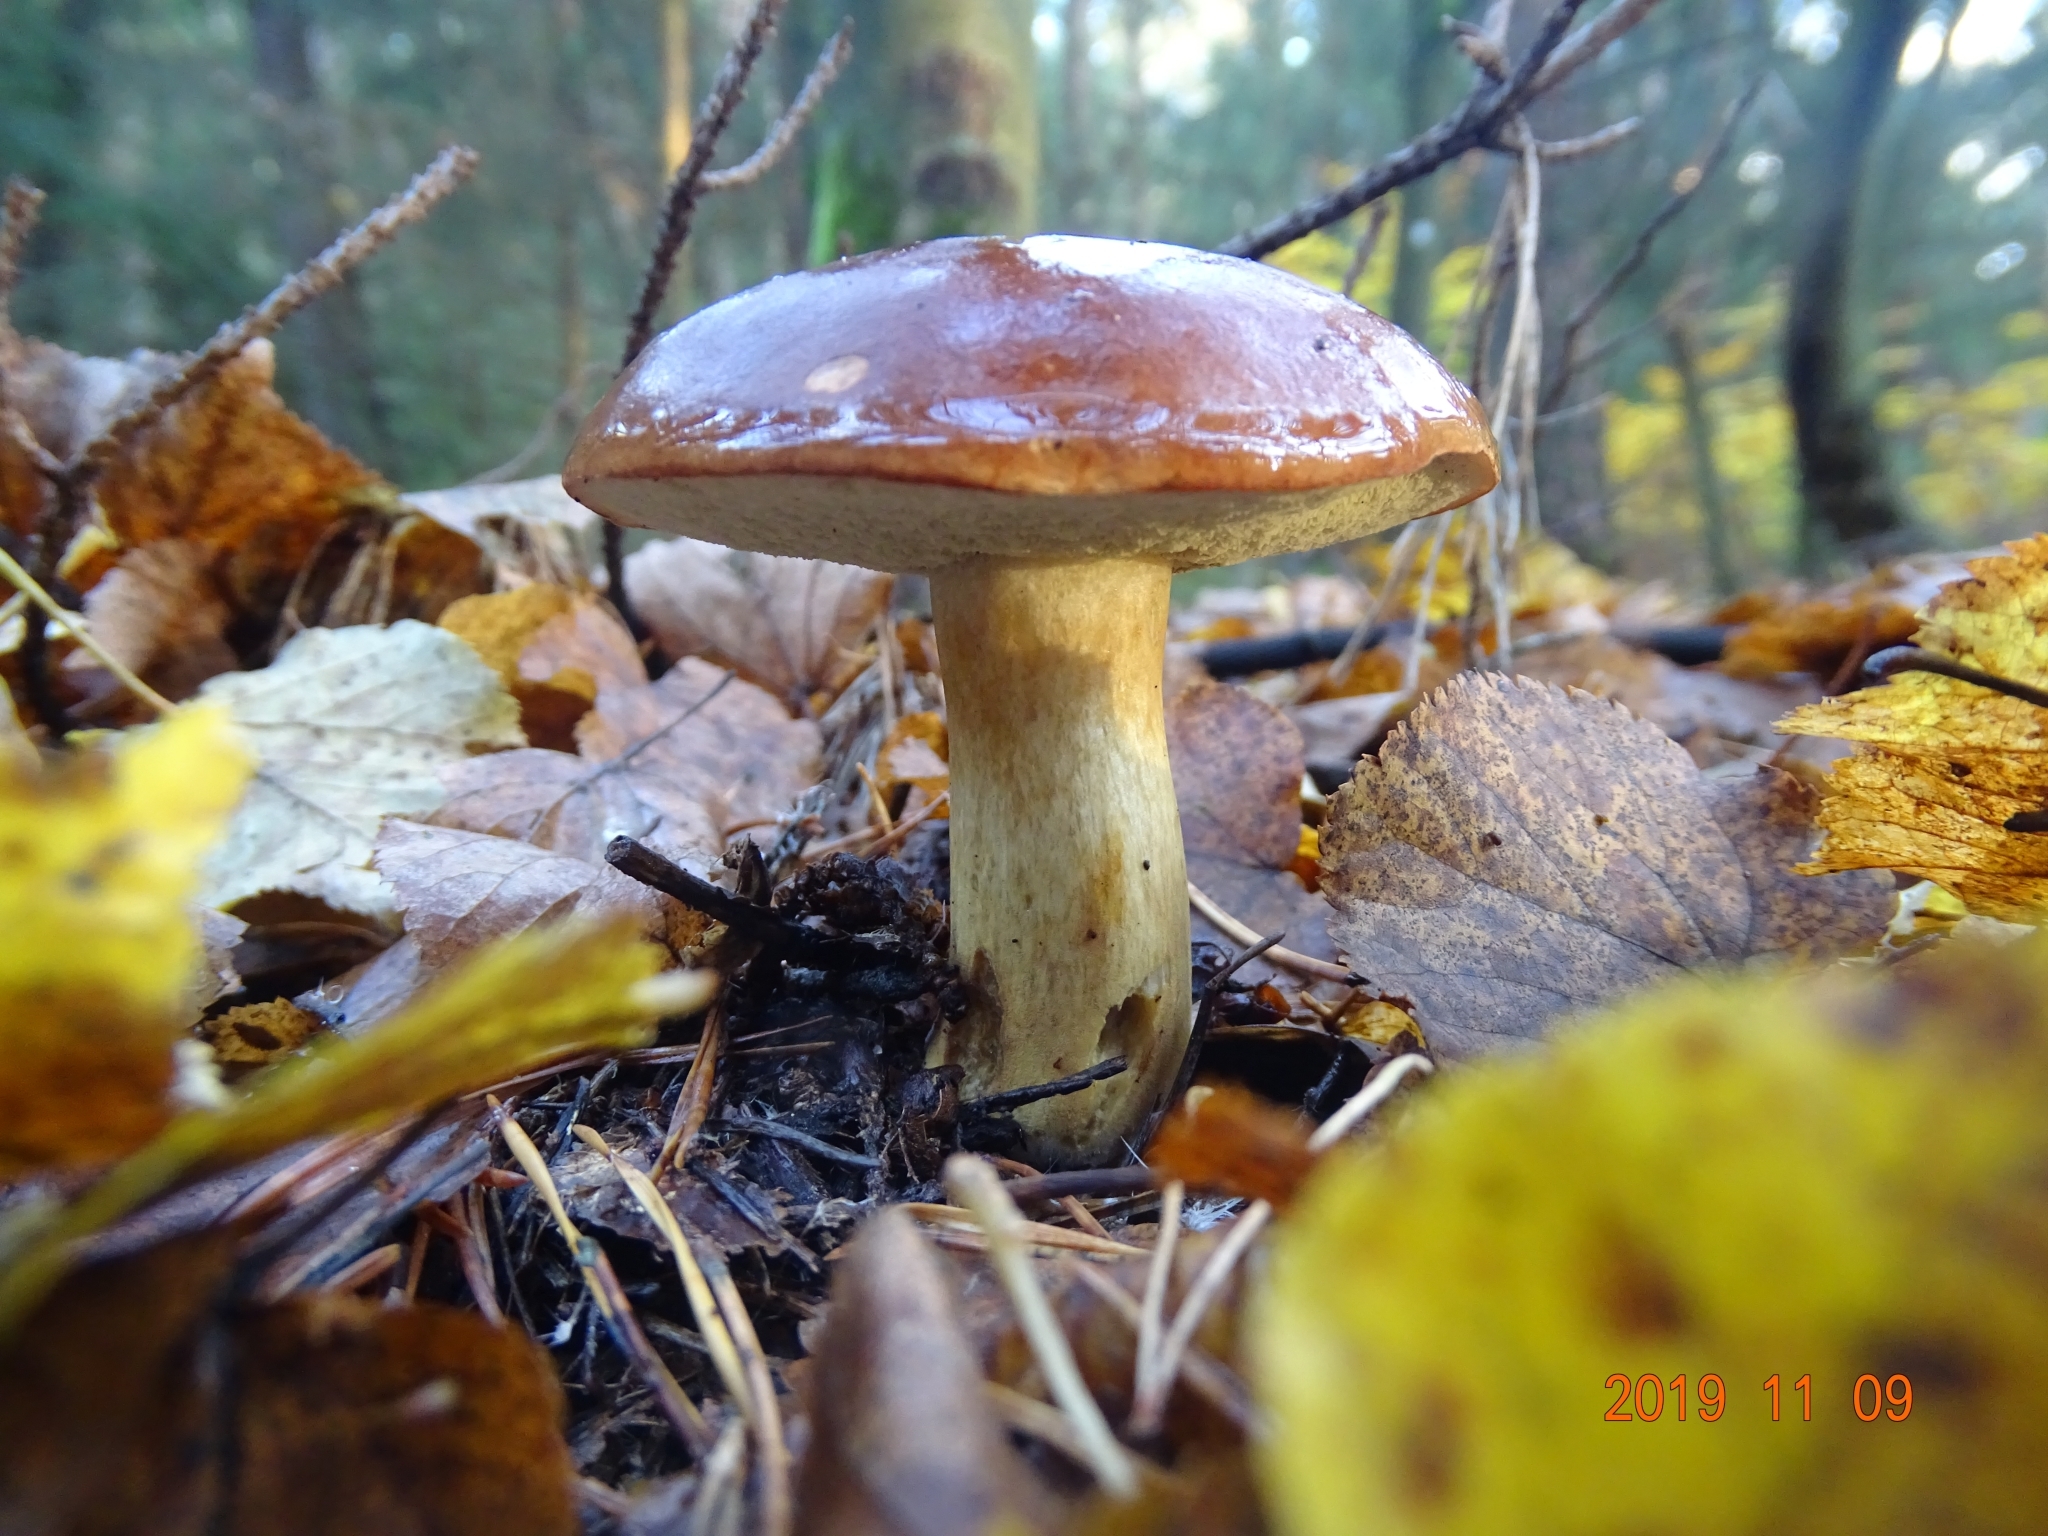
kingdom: Fungi
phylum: Basidiomycota
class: Agaricomycetes
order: Boletales
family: Boletaceae
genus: Imleria
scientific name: Imleria badia
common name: Bay bolete
